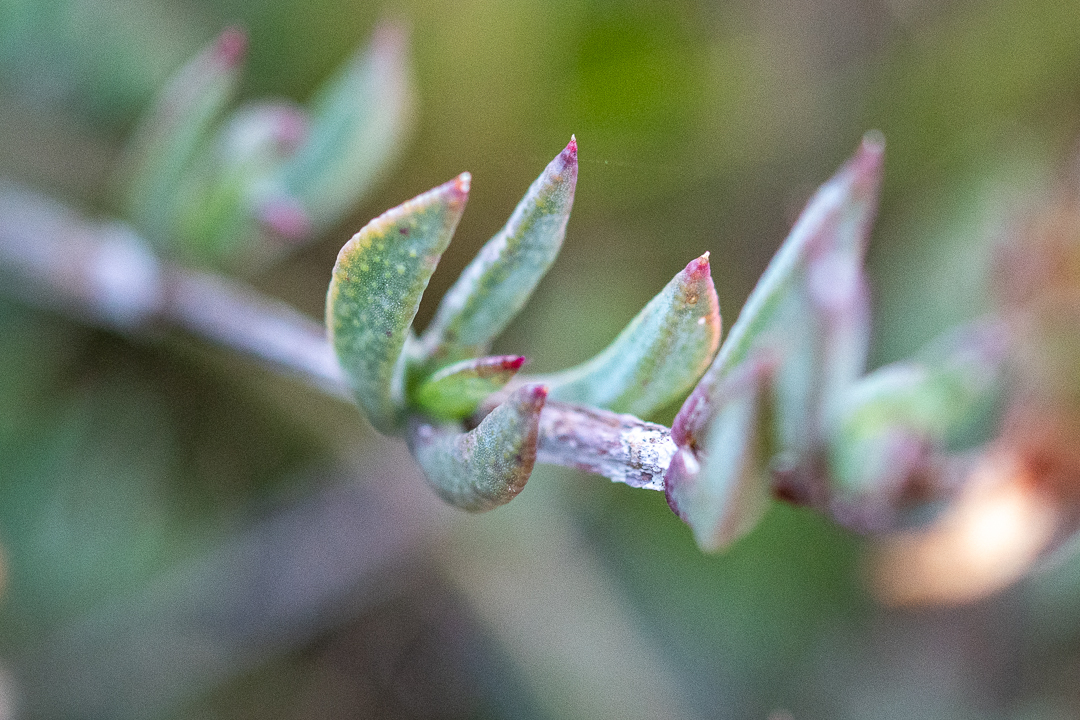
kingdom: Plantae
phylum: Tracheophyta
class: Magnoliopsida
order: Caryophyllales
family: Aizoaceae
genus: Erepsia
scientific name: Erepsia bracteata
